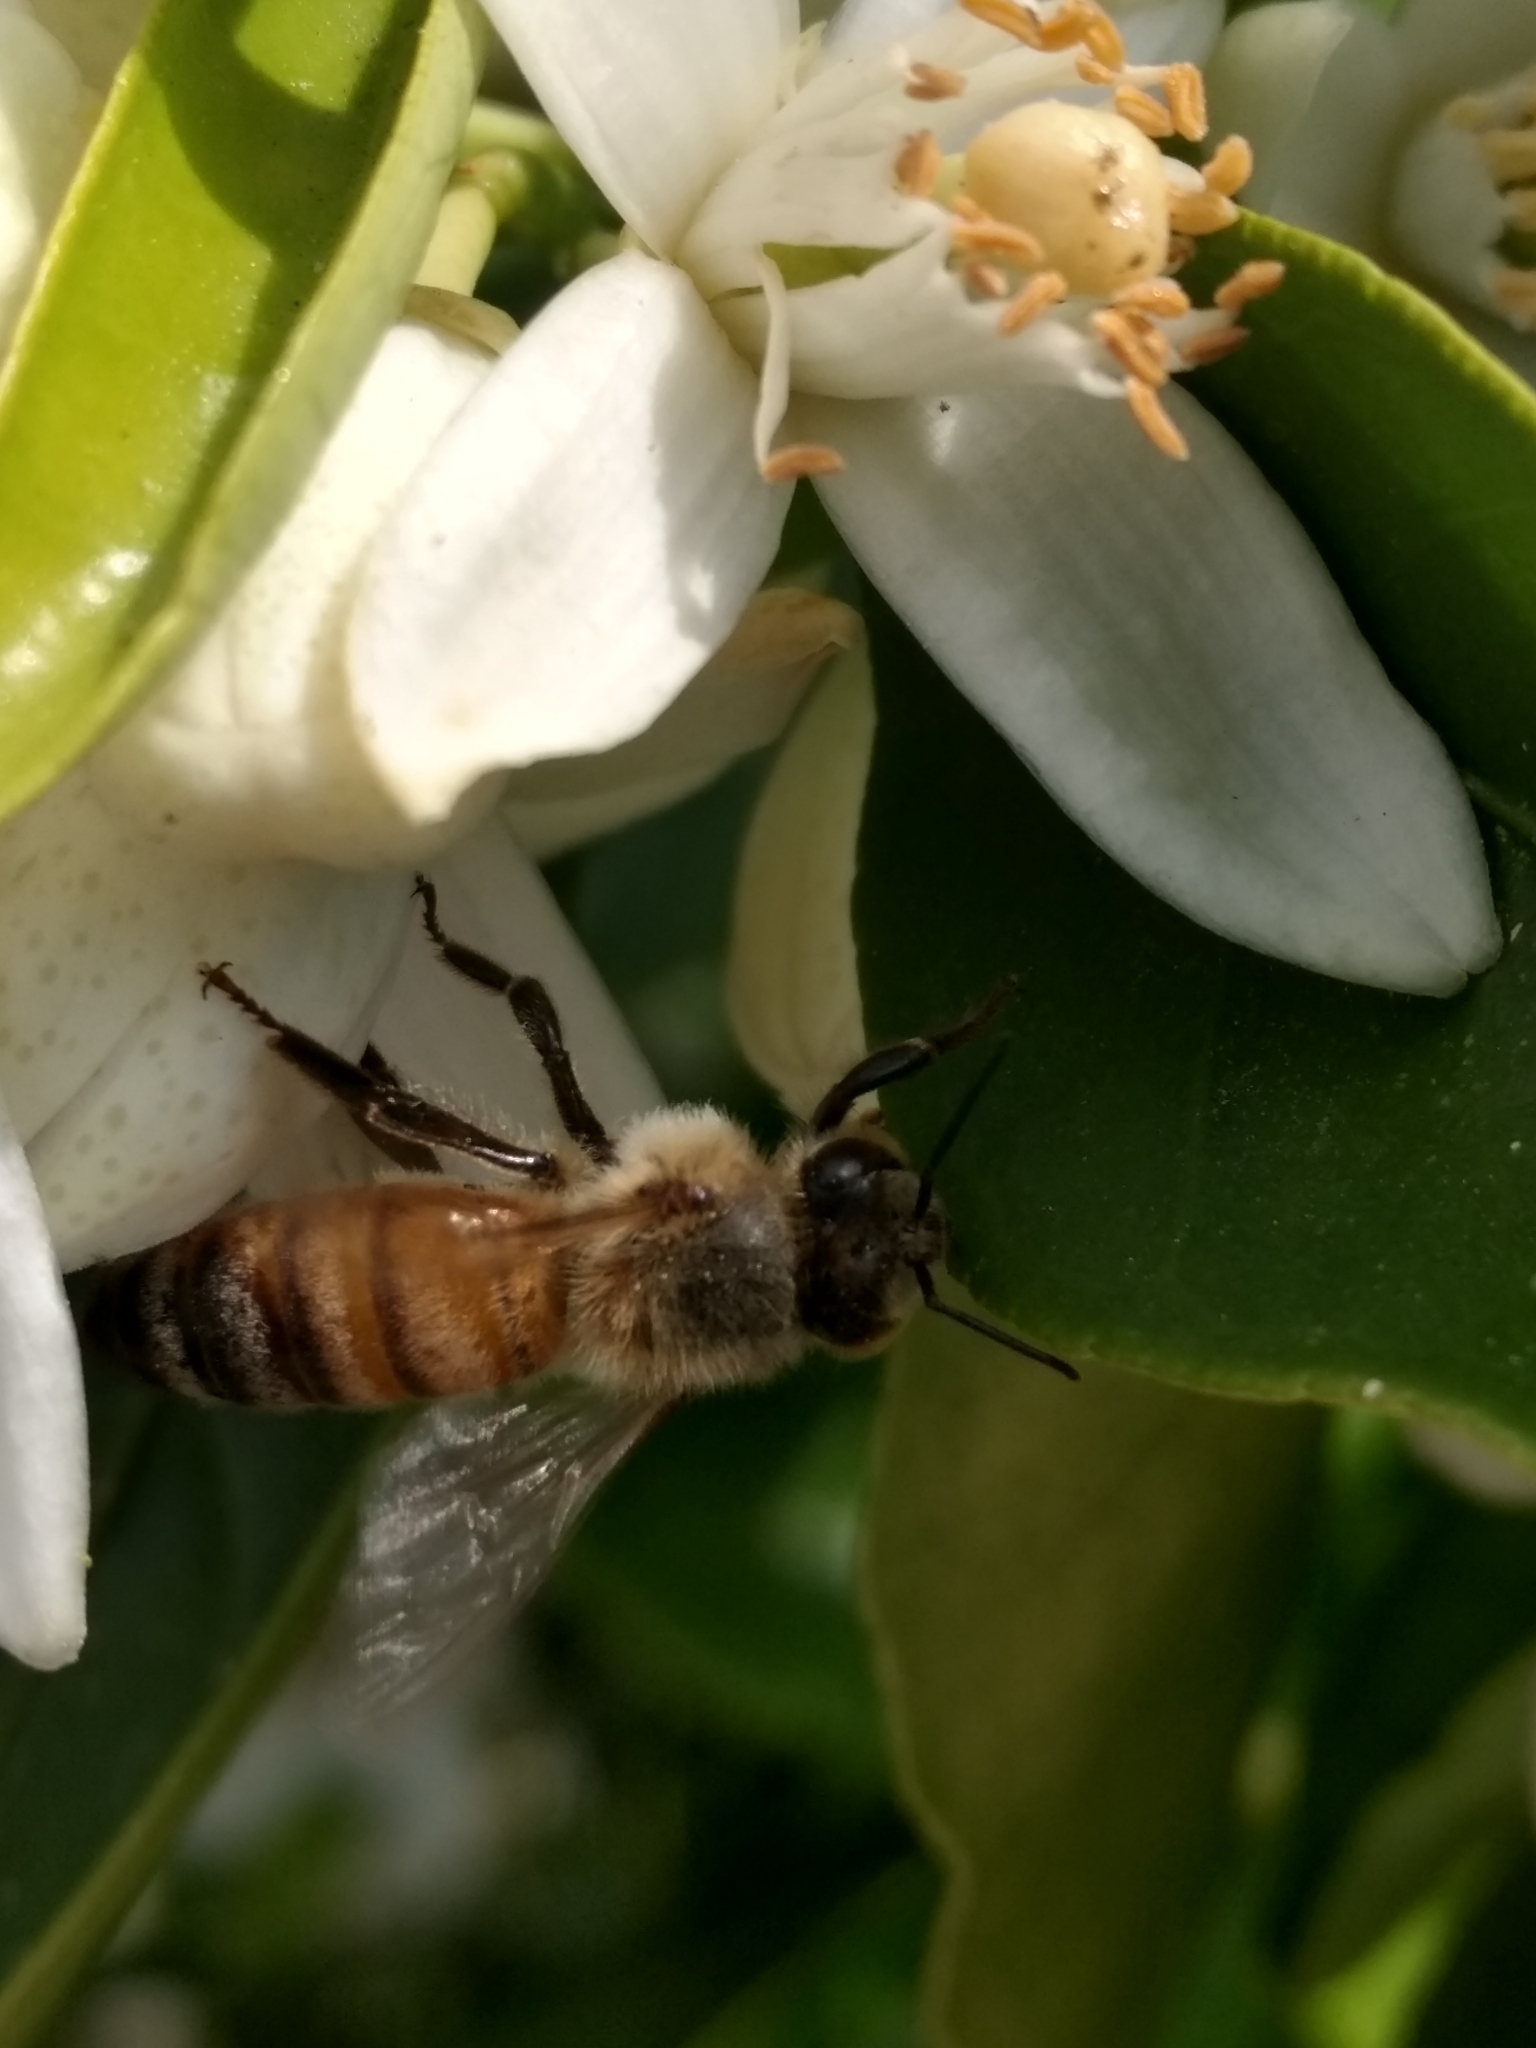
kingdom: Animalia
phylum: Arthropoda
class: Insecta
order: Hymenoptera
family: Apidae
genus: Apis
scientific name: Apis mellifera
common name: Honey bee
